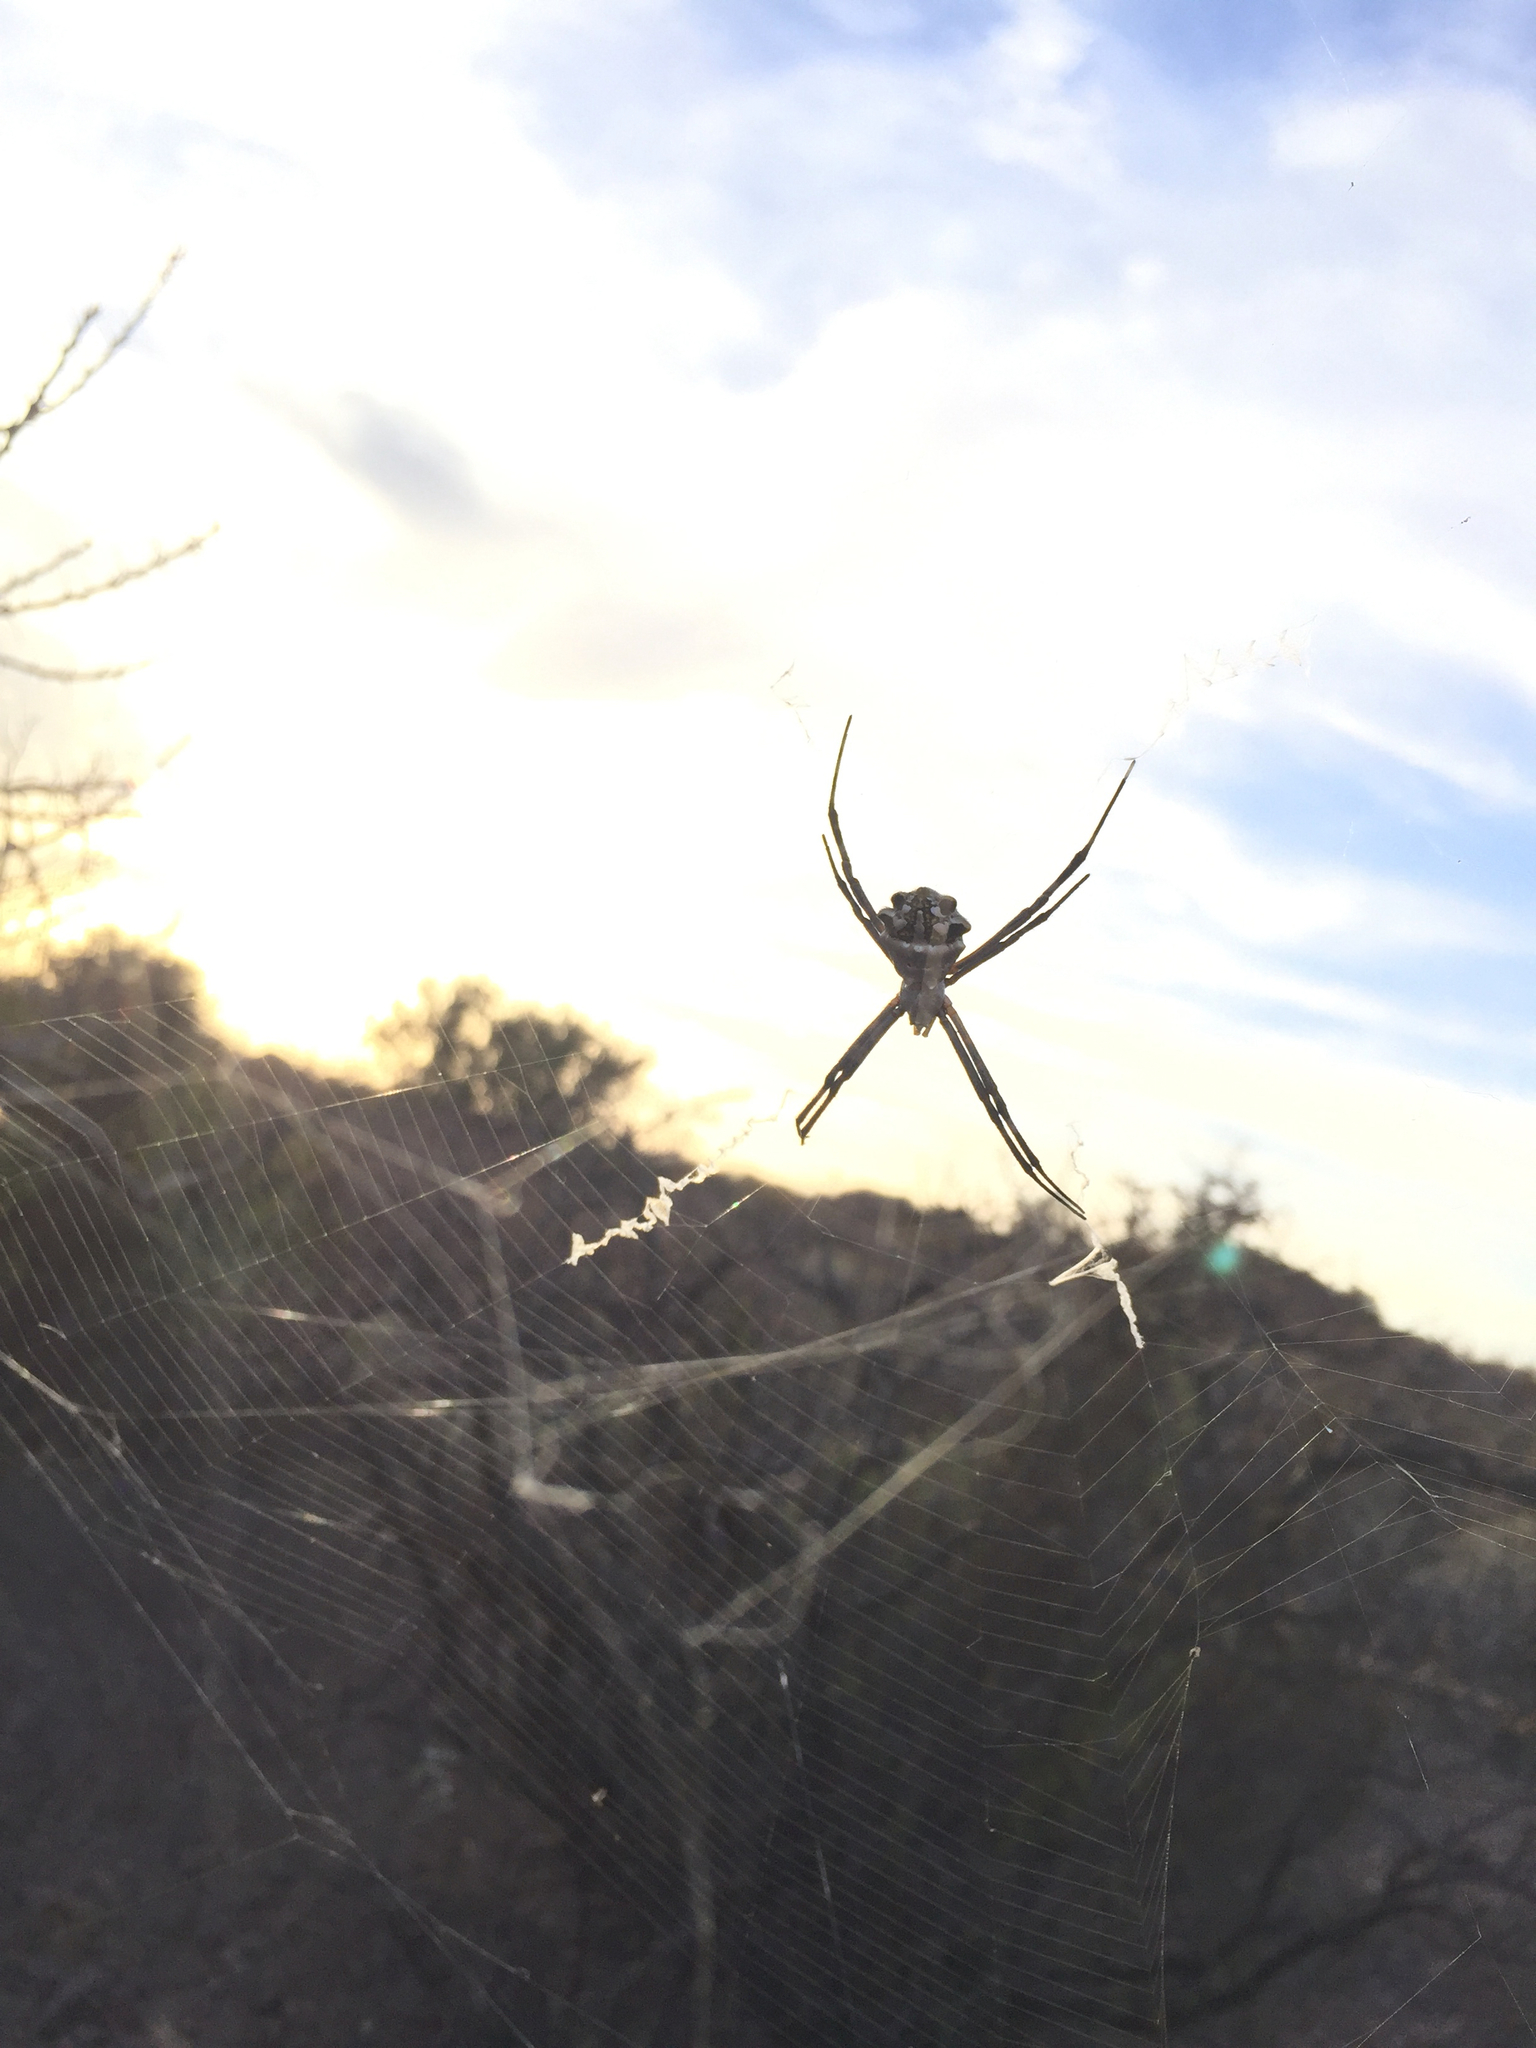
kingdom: Animalia
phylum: Arthropoda
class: Arachnida
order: Araneae
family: Araneidae
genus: Argiope
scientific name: Argiope argentata
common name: Orb weavers
